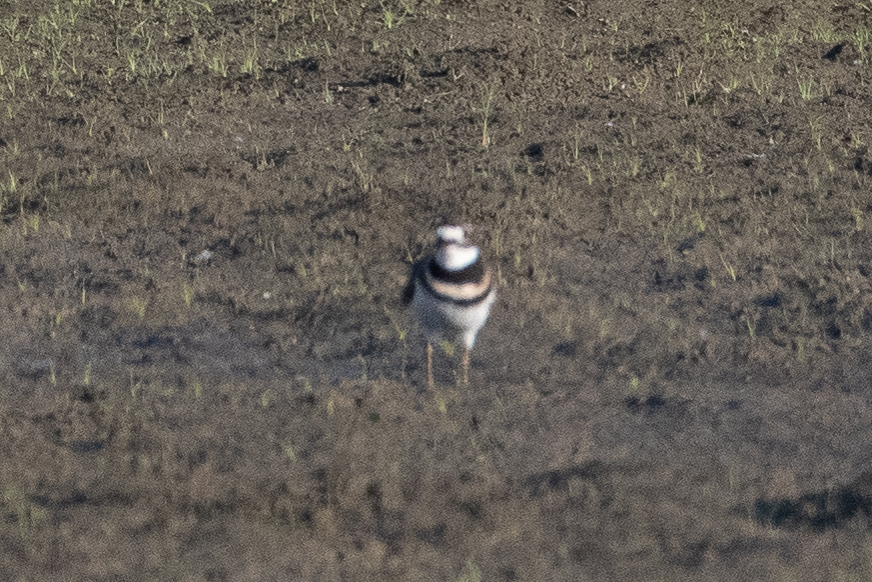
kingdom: Animalia
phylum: Chordata
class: Aves
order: Charadriiformes
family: Charadriidae
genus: Charadrius
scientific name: Charadrius vociferus
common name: Killdeer
